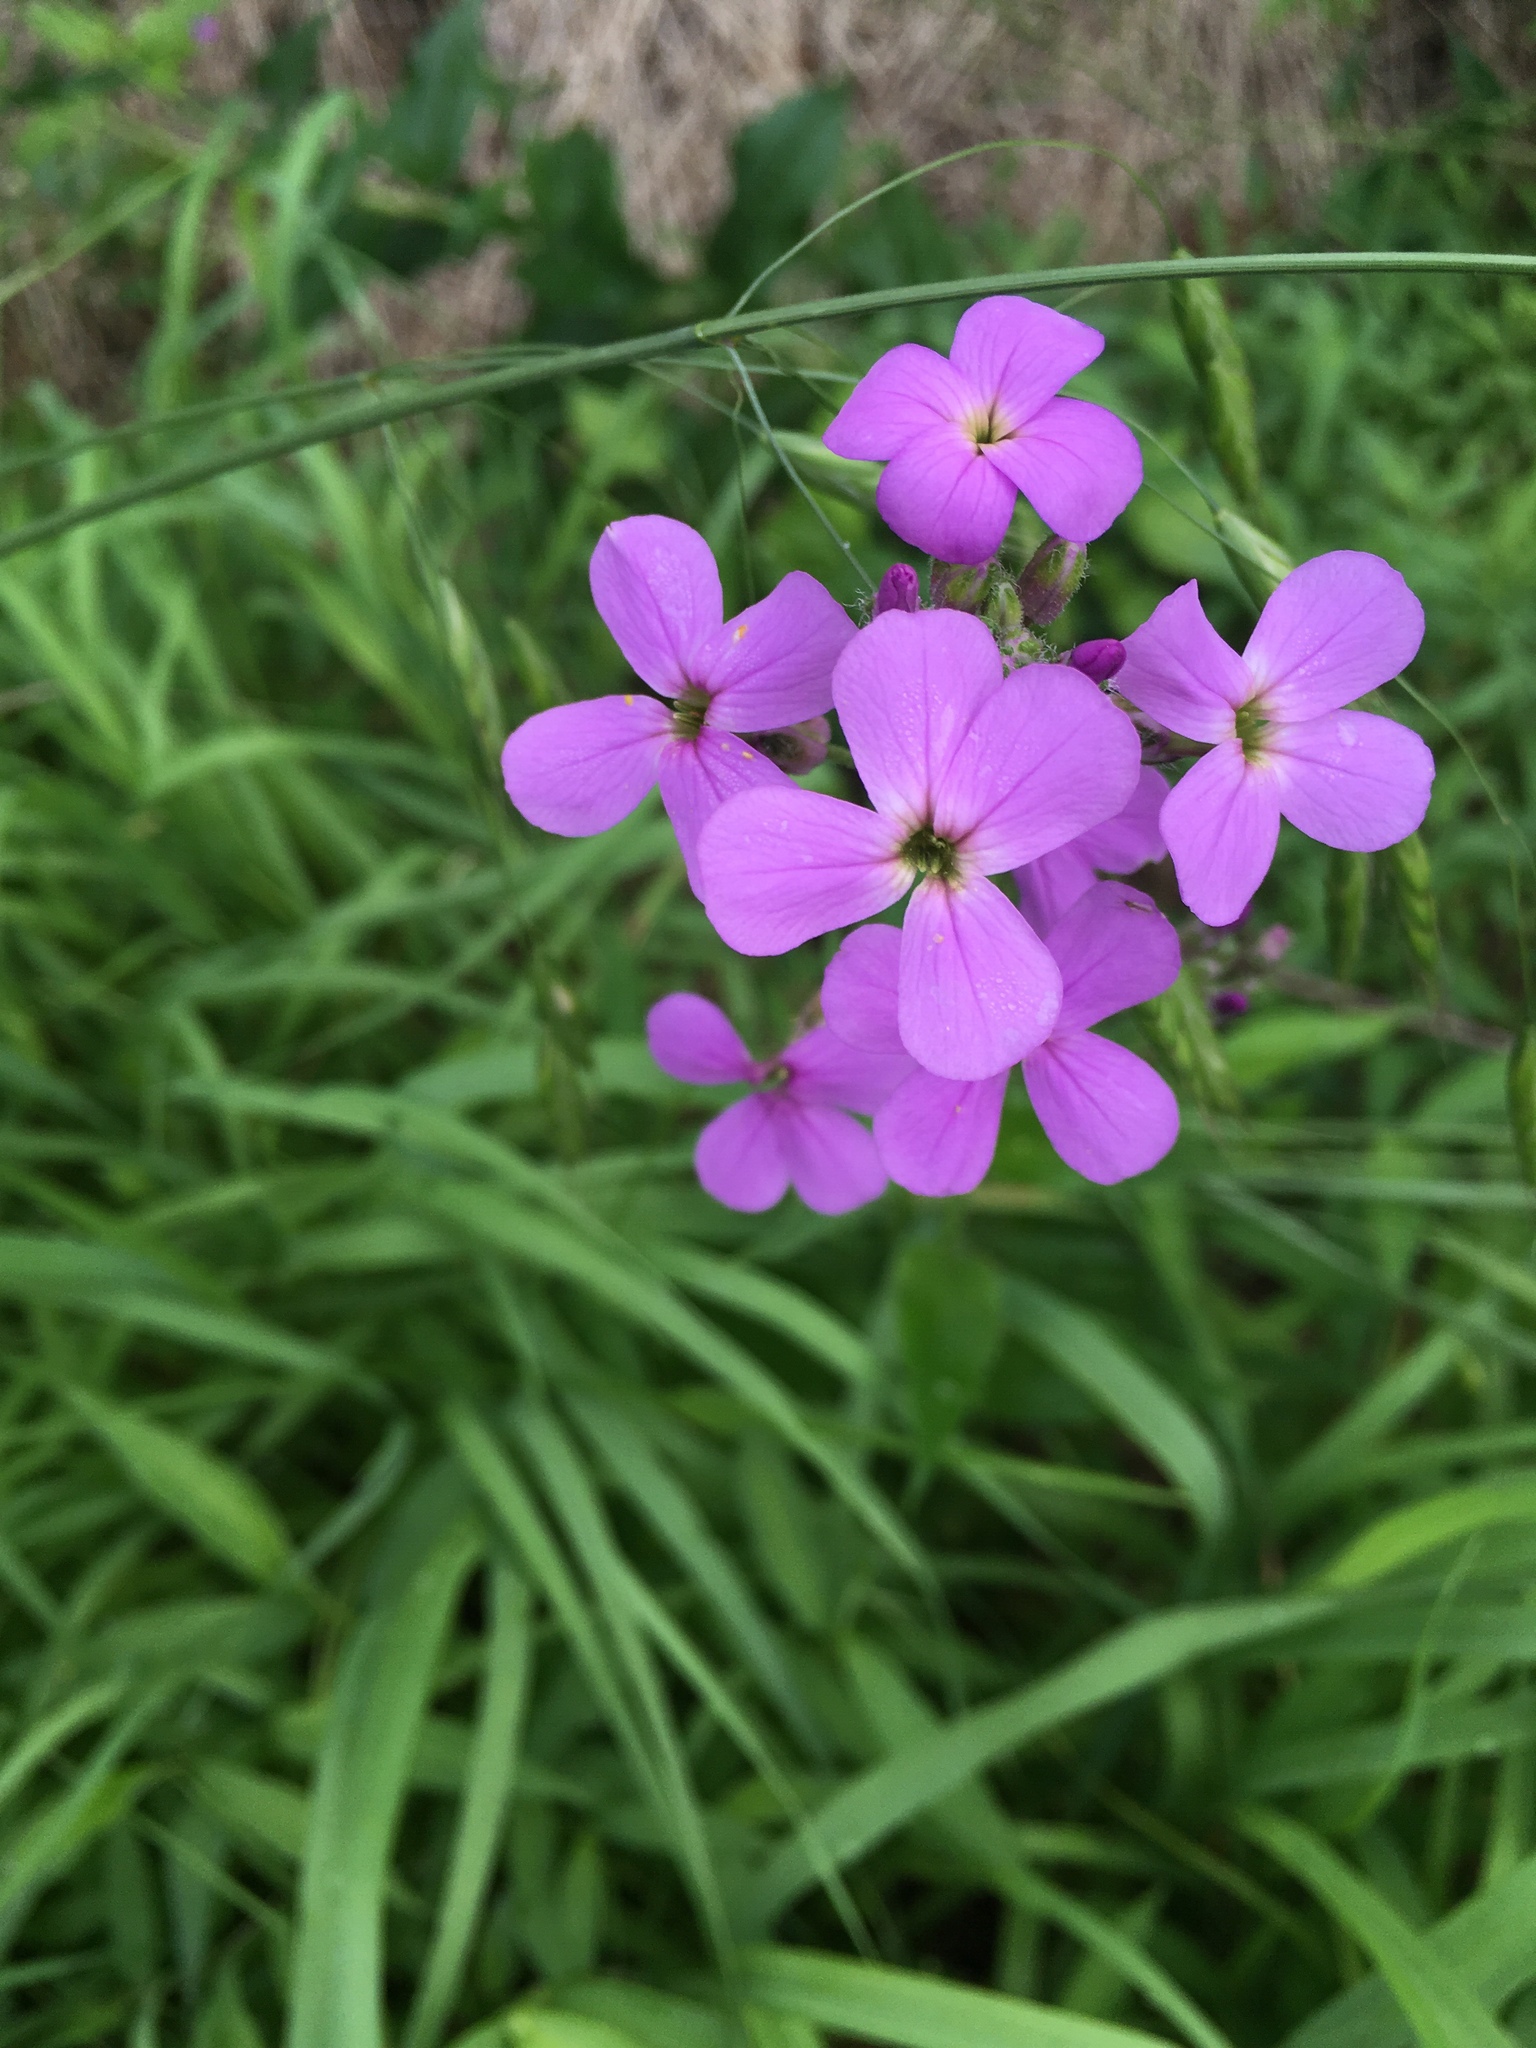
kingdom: Plantae
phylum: Tracheophyta
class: Magnoliopsida
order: Brassicales
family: Brassicaceae
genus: Hesperis
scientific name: Hesperis matronalis
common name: Dame's-violet
